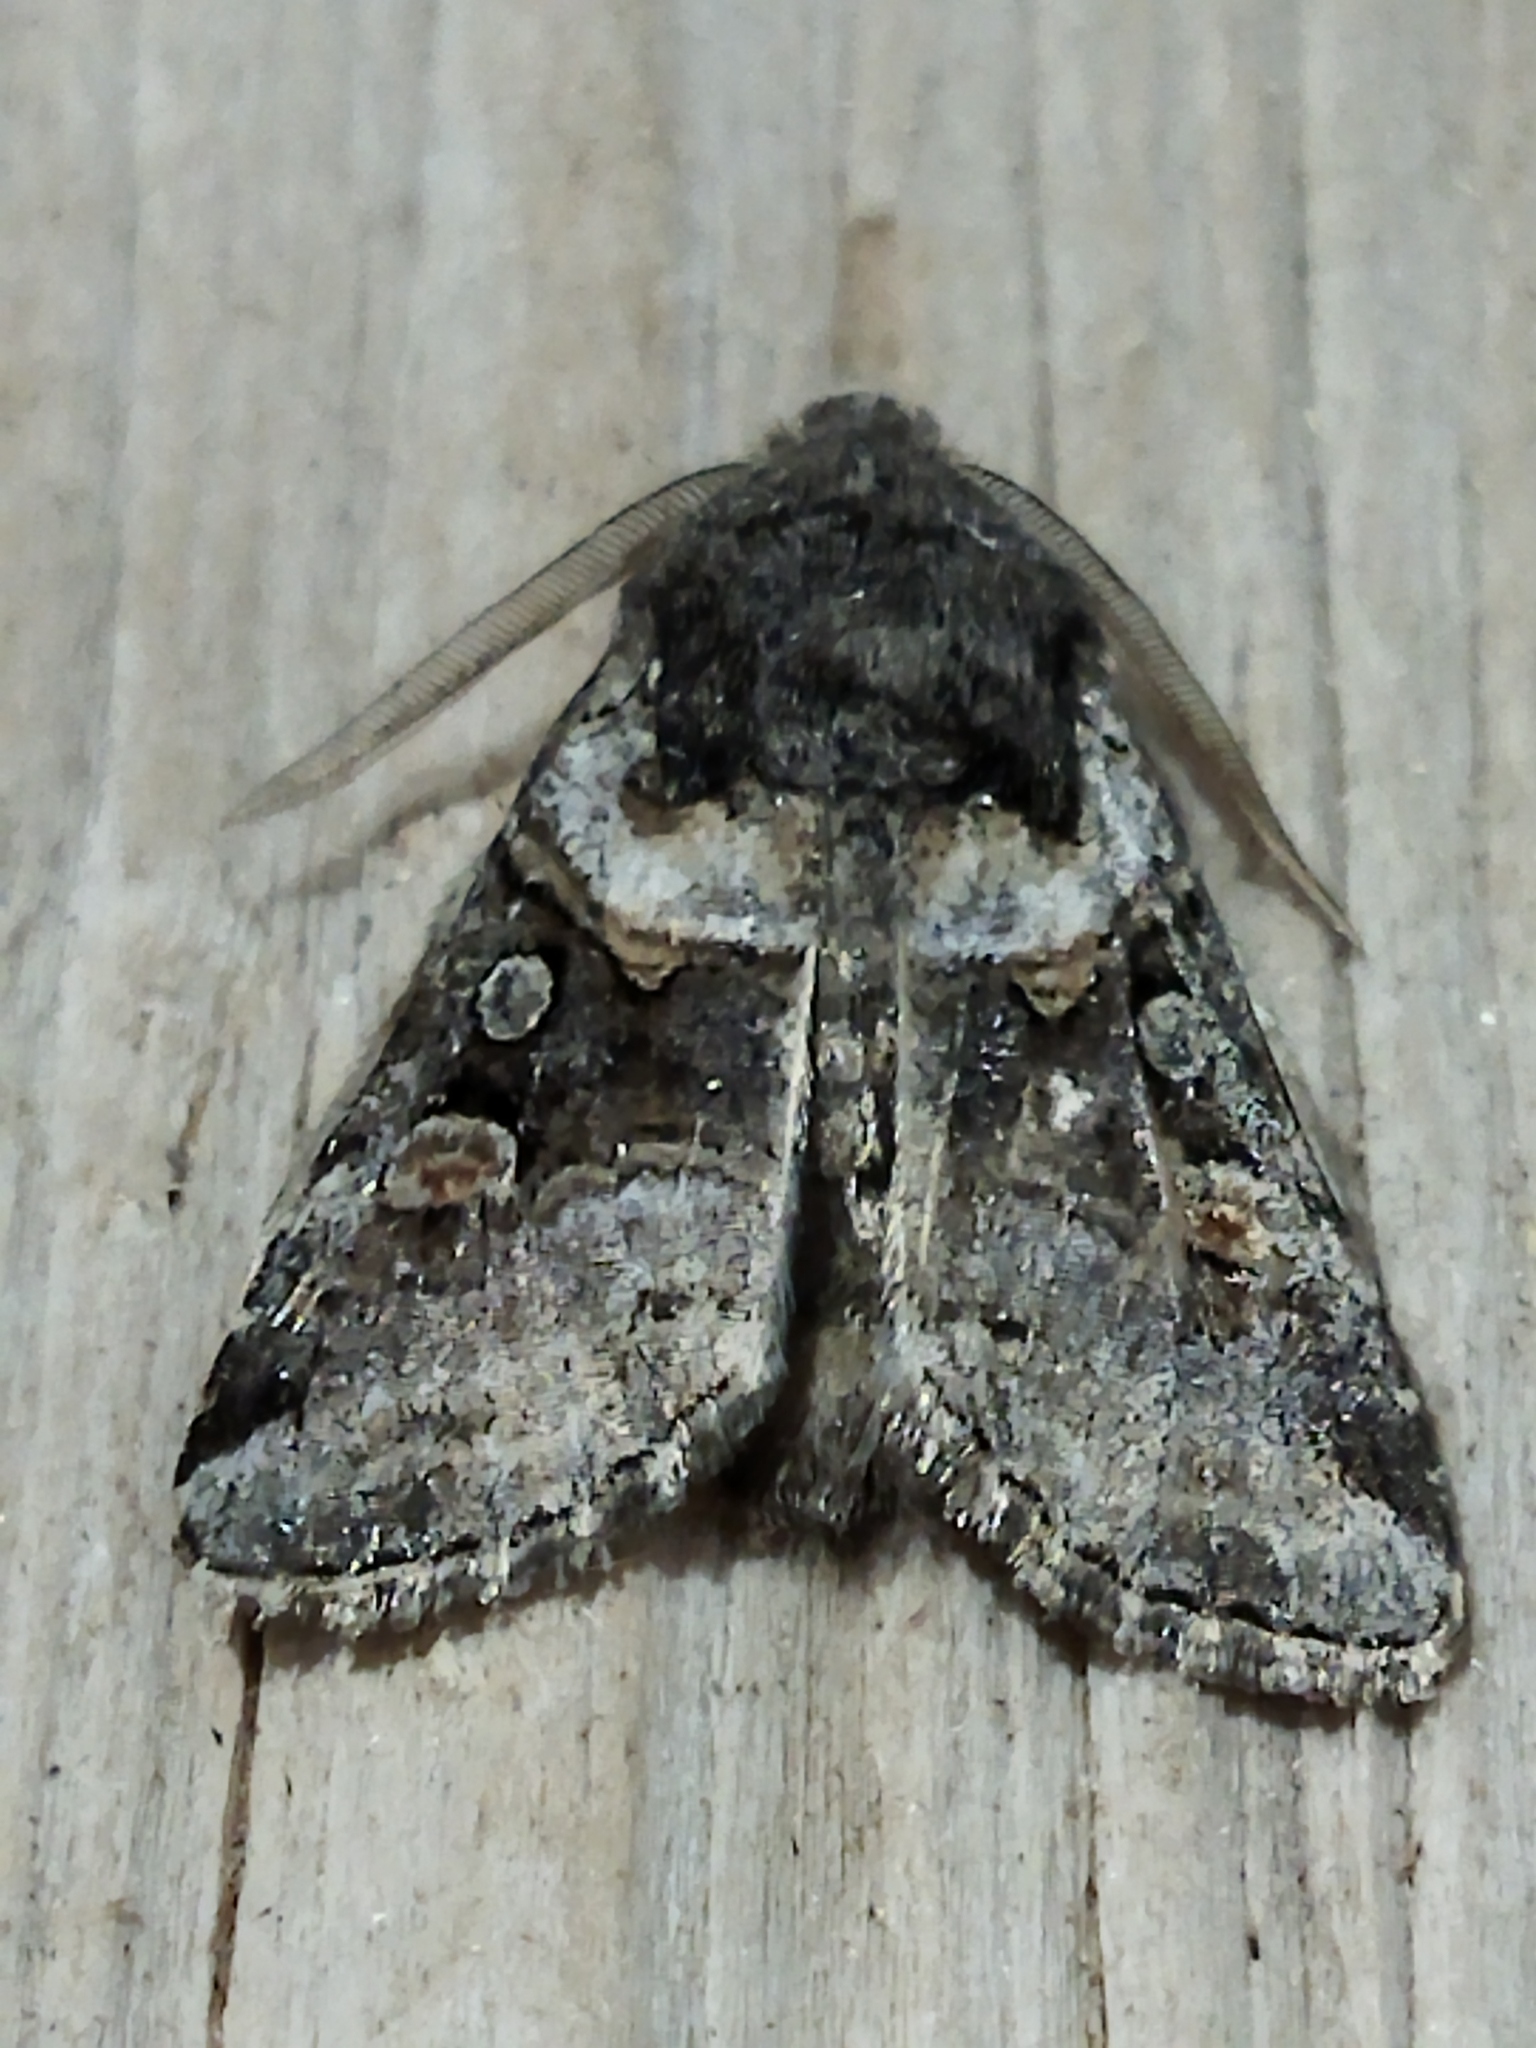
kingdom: Animalia
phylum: Arthropoda
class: Insecta
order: Lepidoptera
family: Noctuidae
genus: Cleoceris
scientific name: Cleoceris scoriacea
